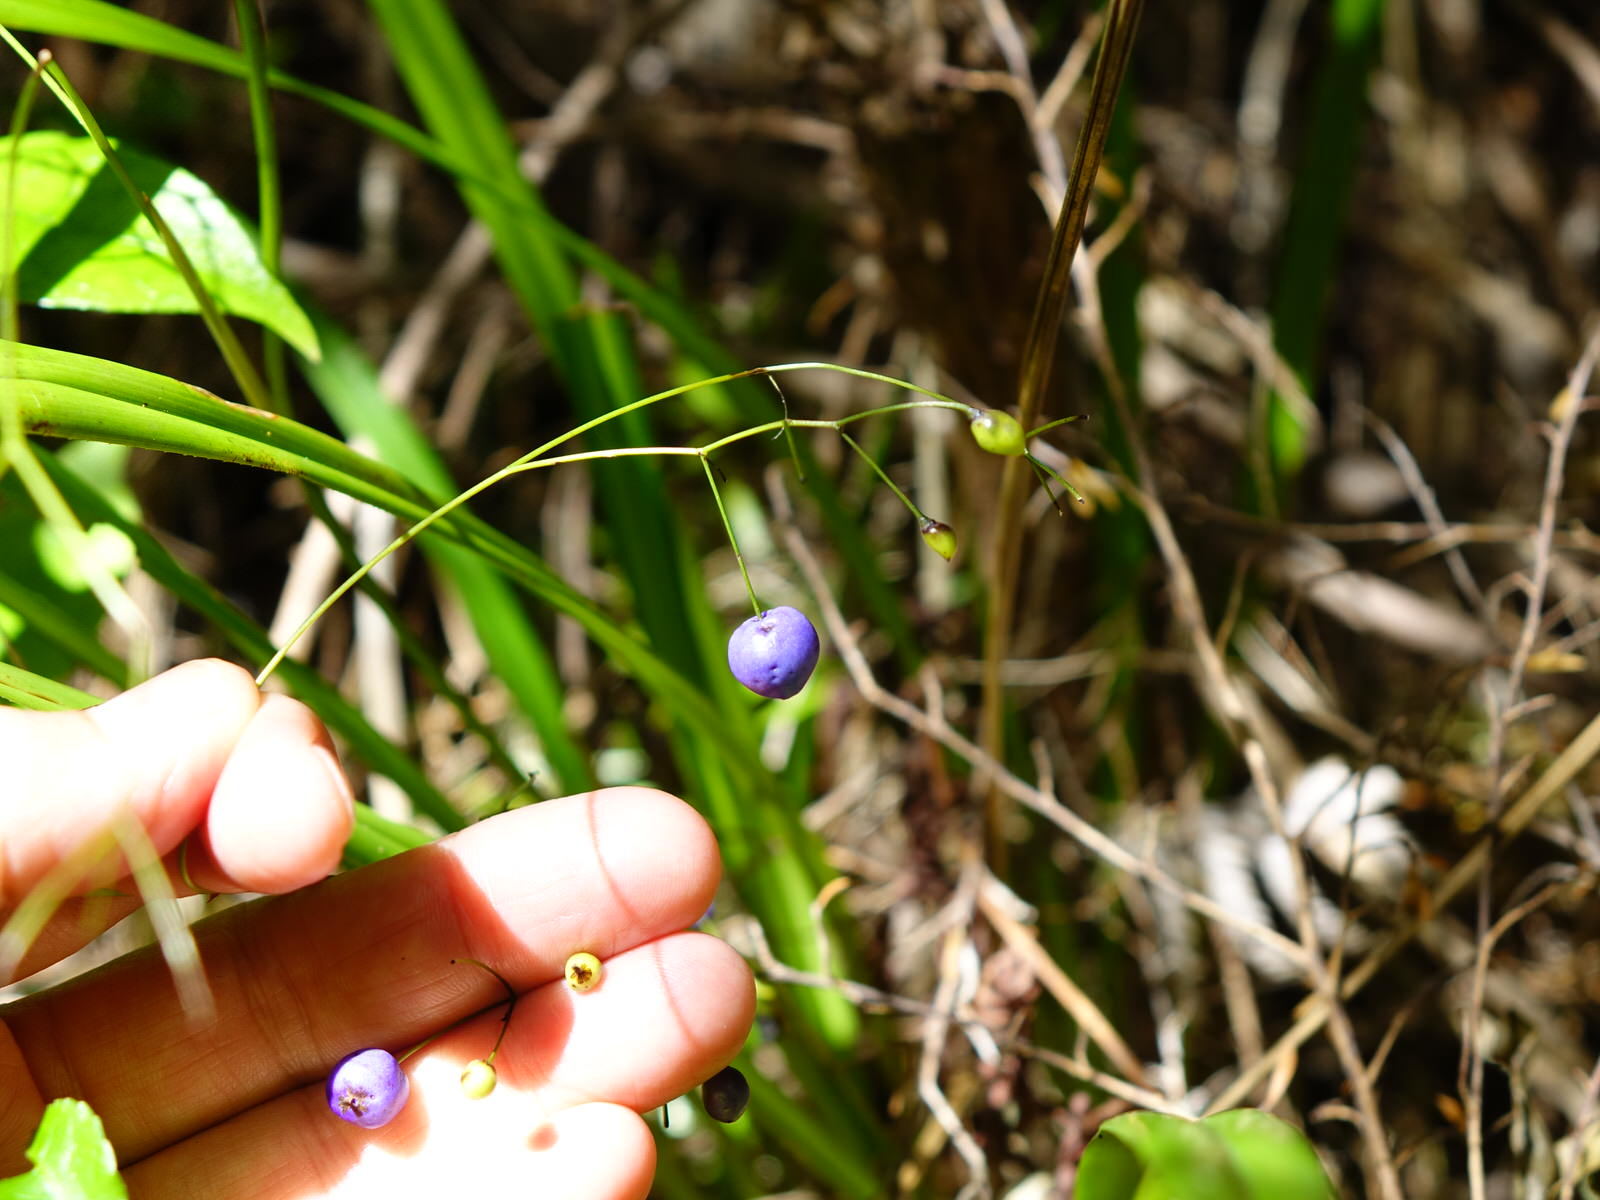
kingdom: Plantae
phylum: Tracheophyta
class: Liliopsida
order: Asparagales
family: Asphodelaceae
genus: Dianella
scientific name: Dianella nigra
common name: New zealand-blueberry
